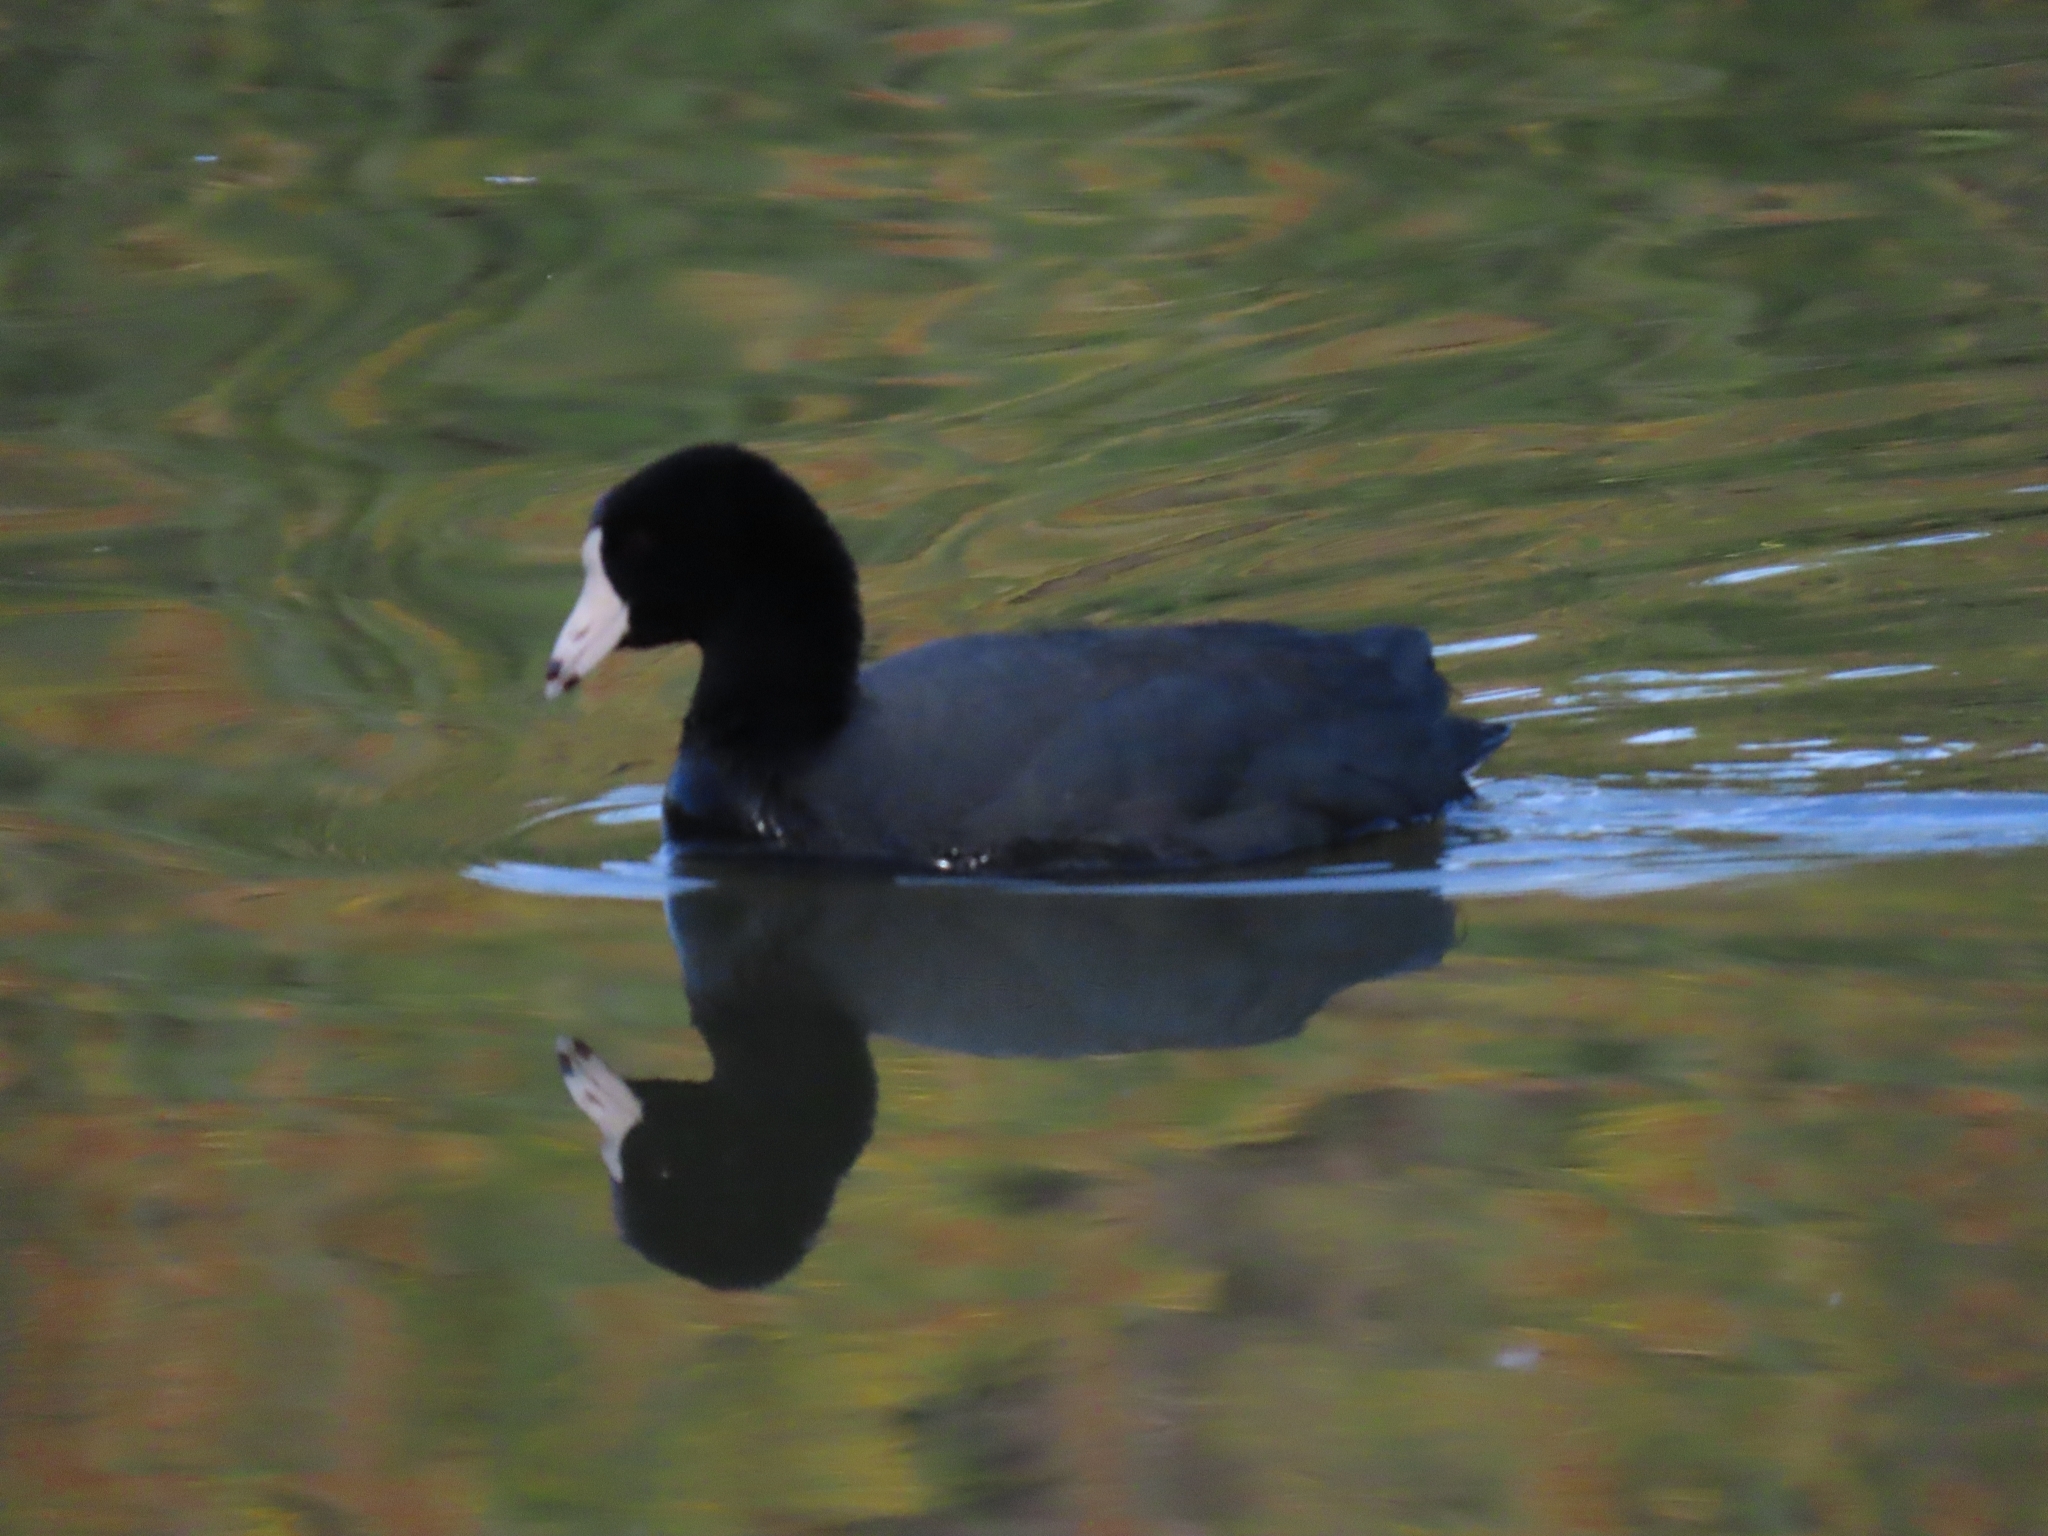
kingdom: Animalia
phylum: Chordata
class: Aves
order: Gruiformes
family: Rallidae
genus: Fulica
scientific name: Fulica americana
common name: American coot
